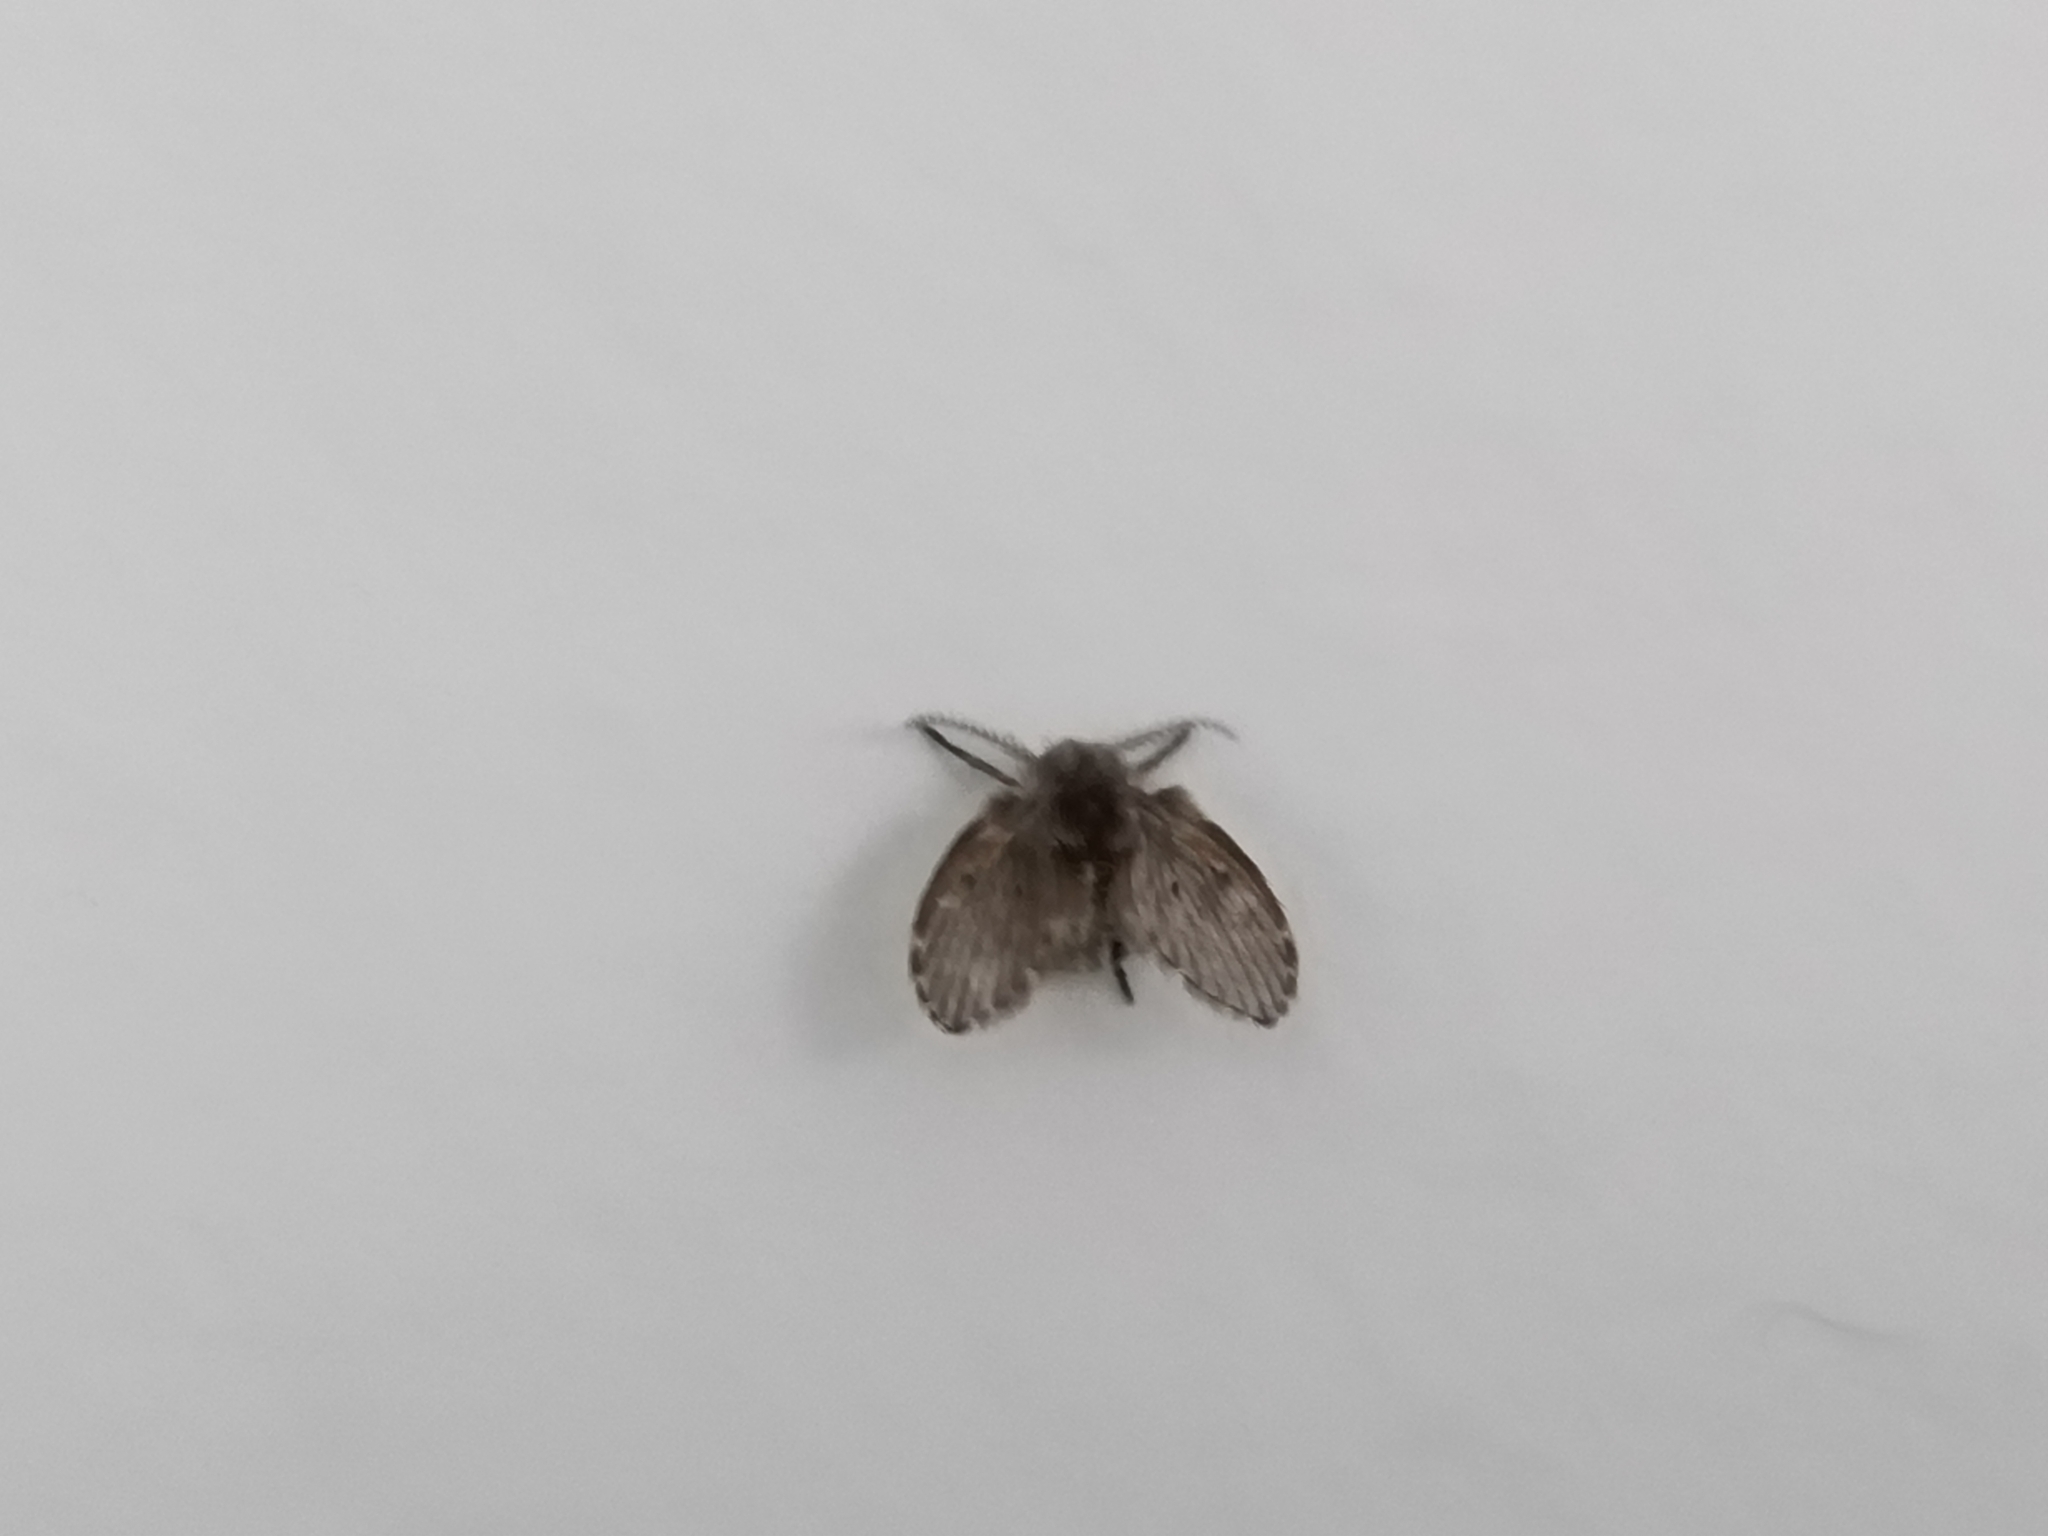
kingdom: Animalia
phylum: Arthropoda
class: Insecta
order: Diptera
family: Psychodidae
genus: Clogmia
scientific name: Clogmia albipunctatus
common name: White-spotted moth fly
